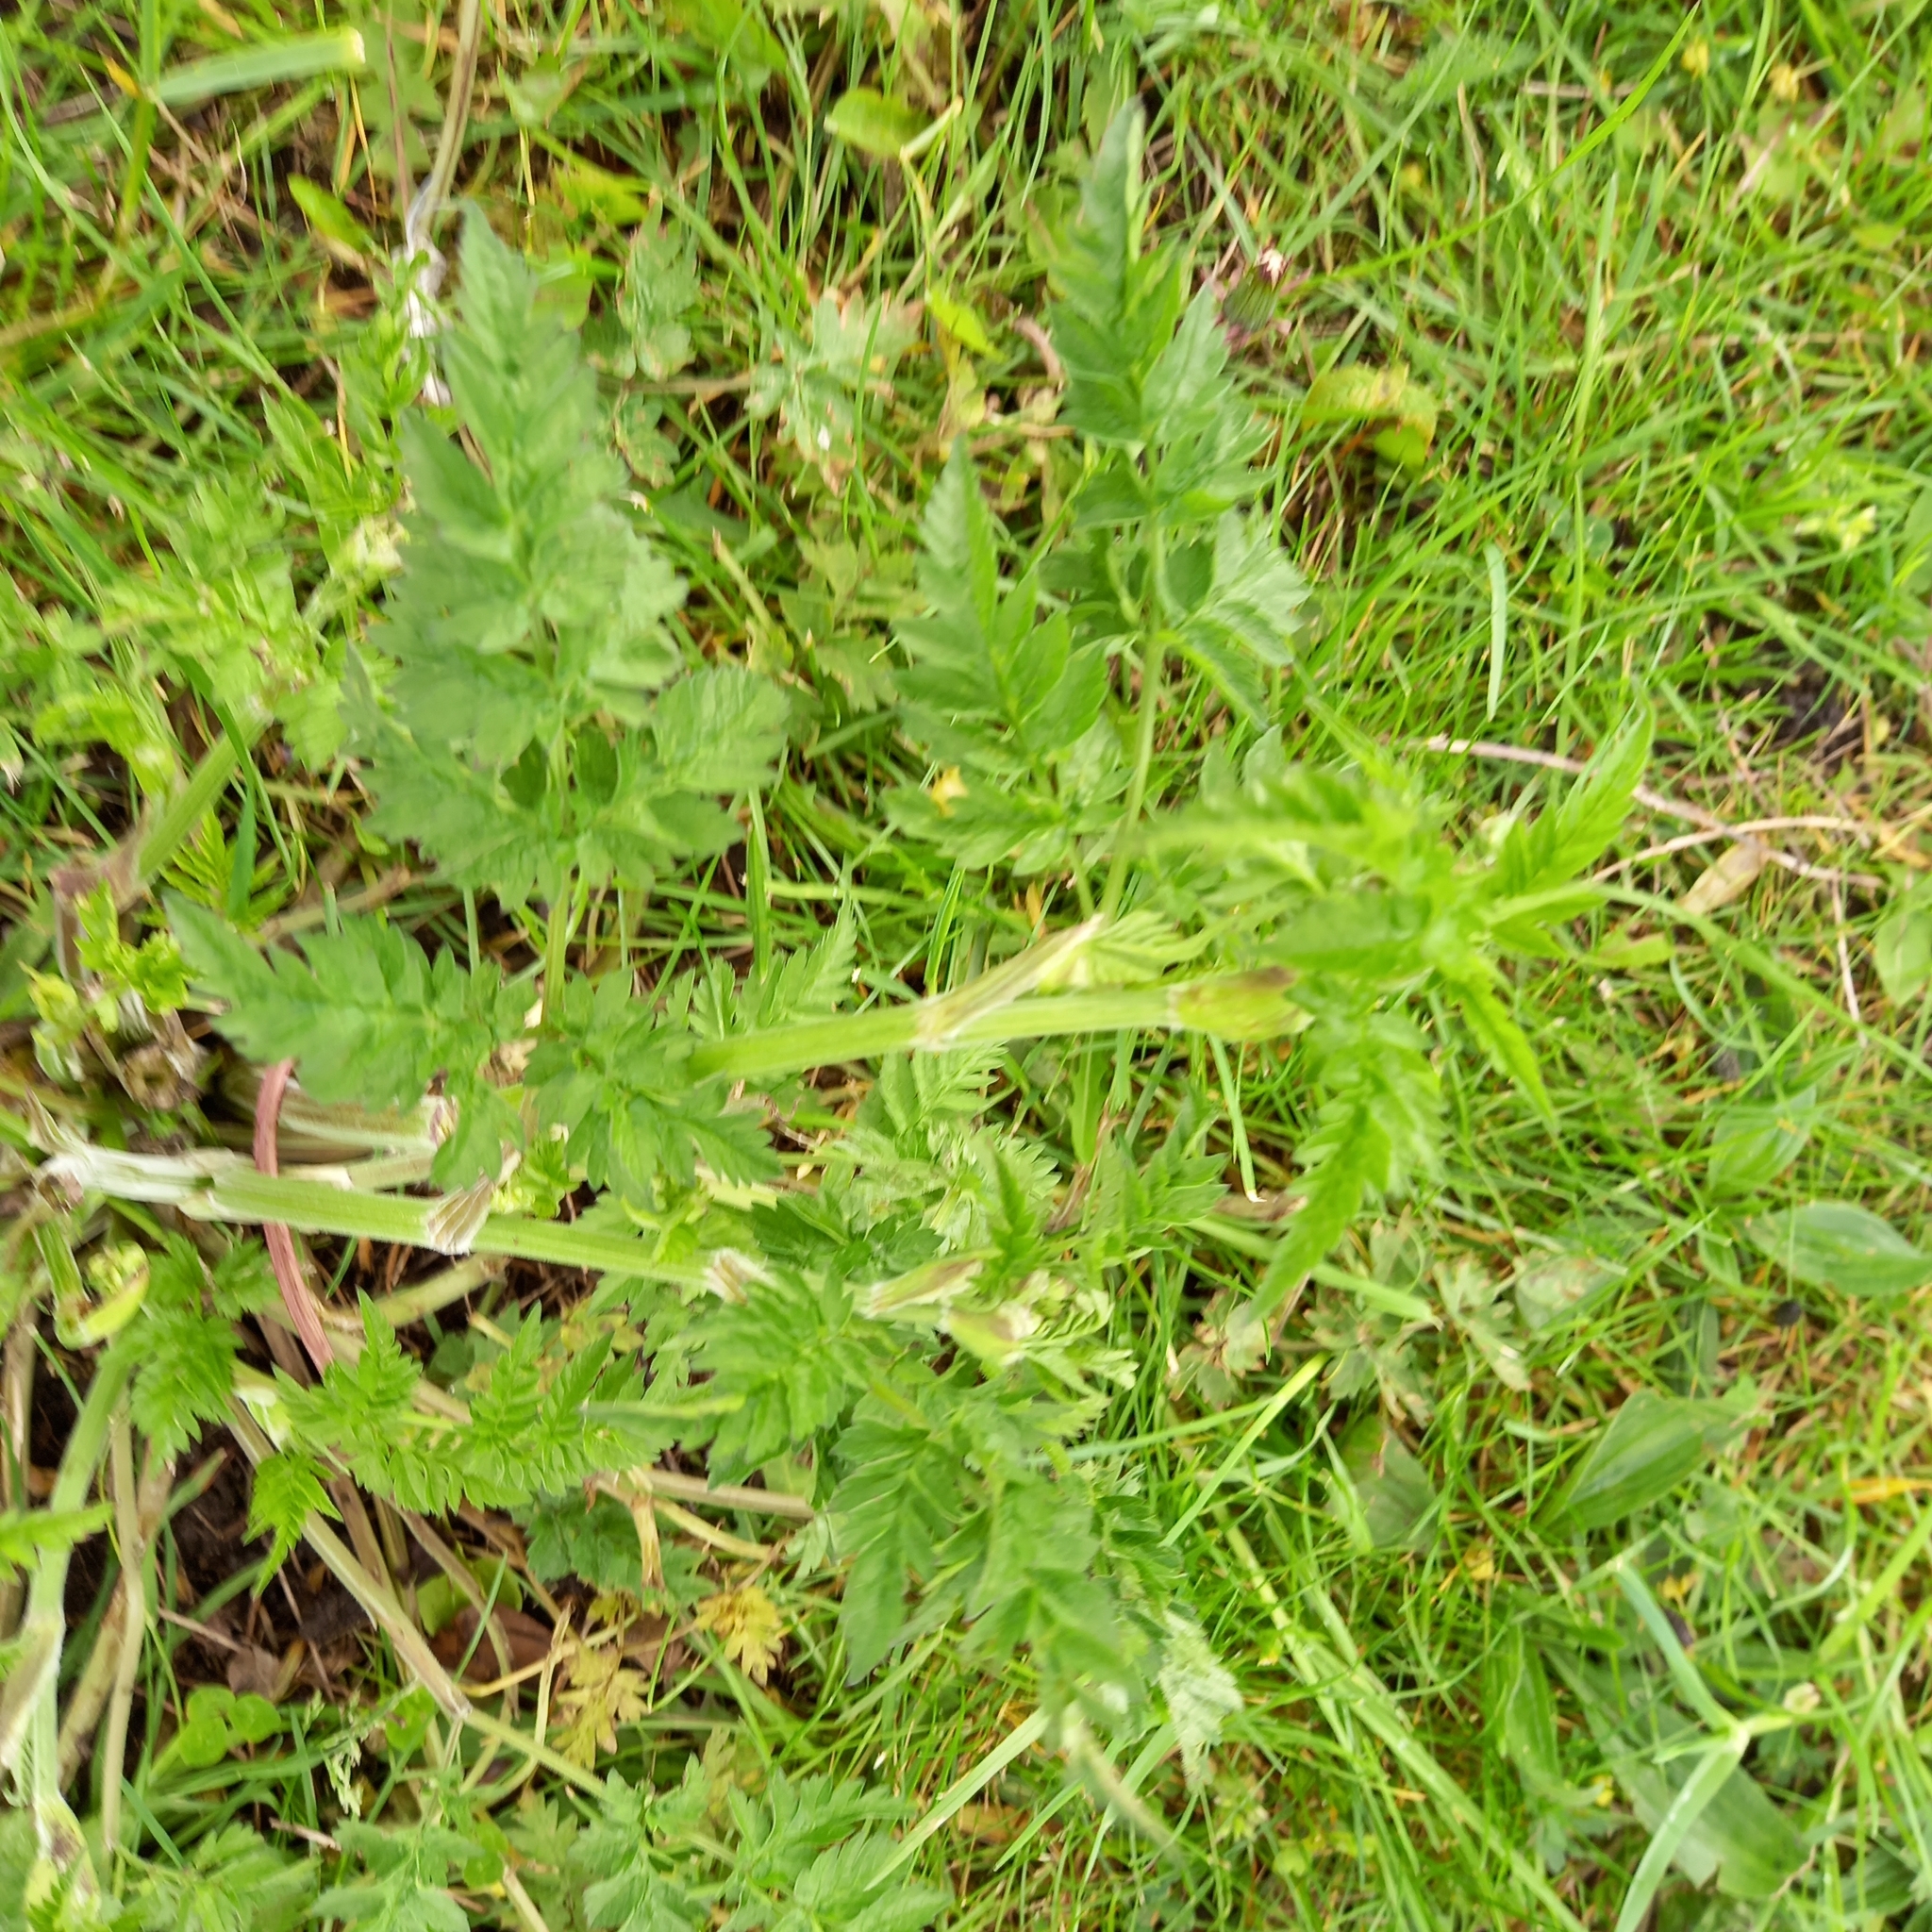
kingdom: Plantae
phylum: Tracheophyta
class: Magnoliopsida
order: Apiales
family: Apiaceae
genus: Anthriscus
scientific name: Anthriscus sylvestris
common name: Cow parsley
